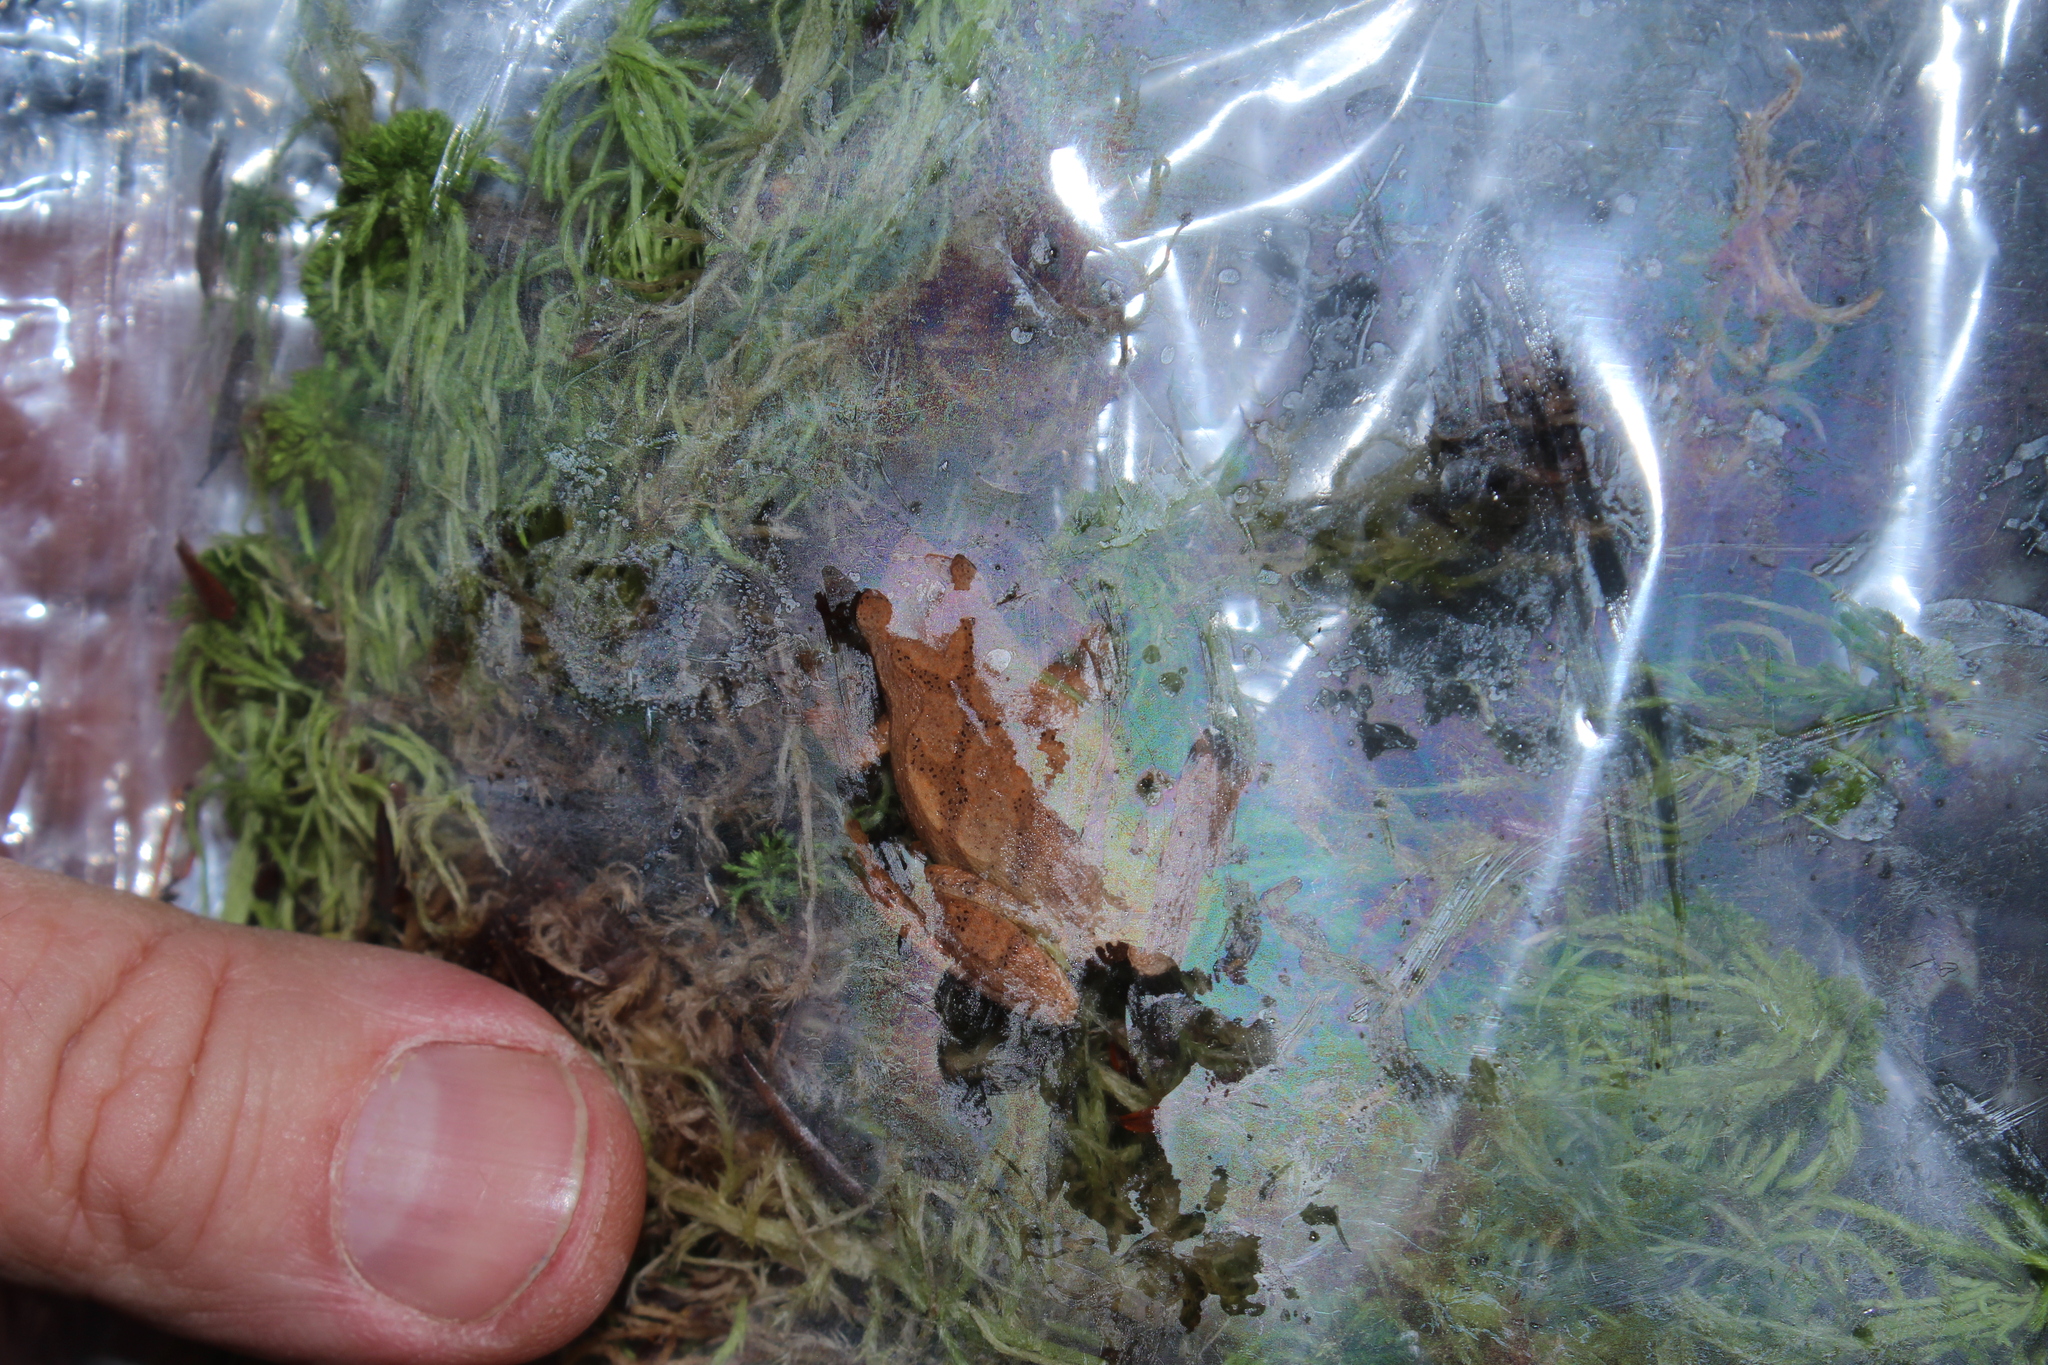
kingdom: Animalia
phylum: Chordata
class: Amphibia
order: Anura
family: Hylidae
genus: Pseudacris
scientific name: Pseudacris crucifer
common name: Spring peeper
